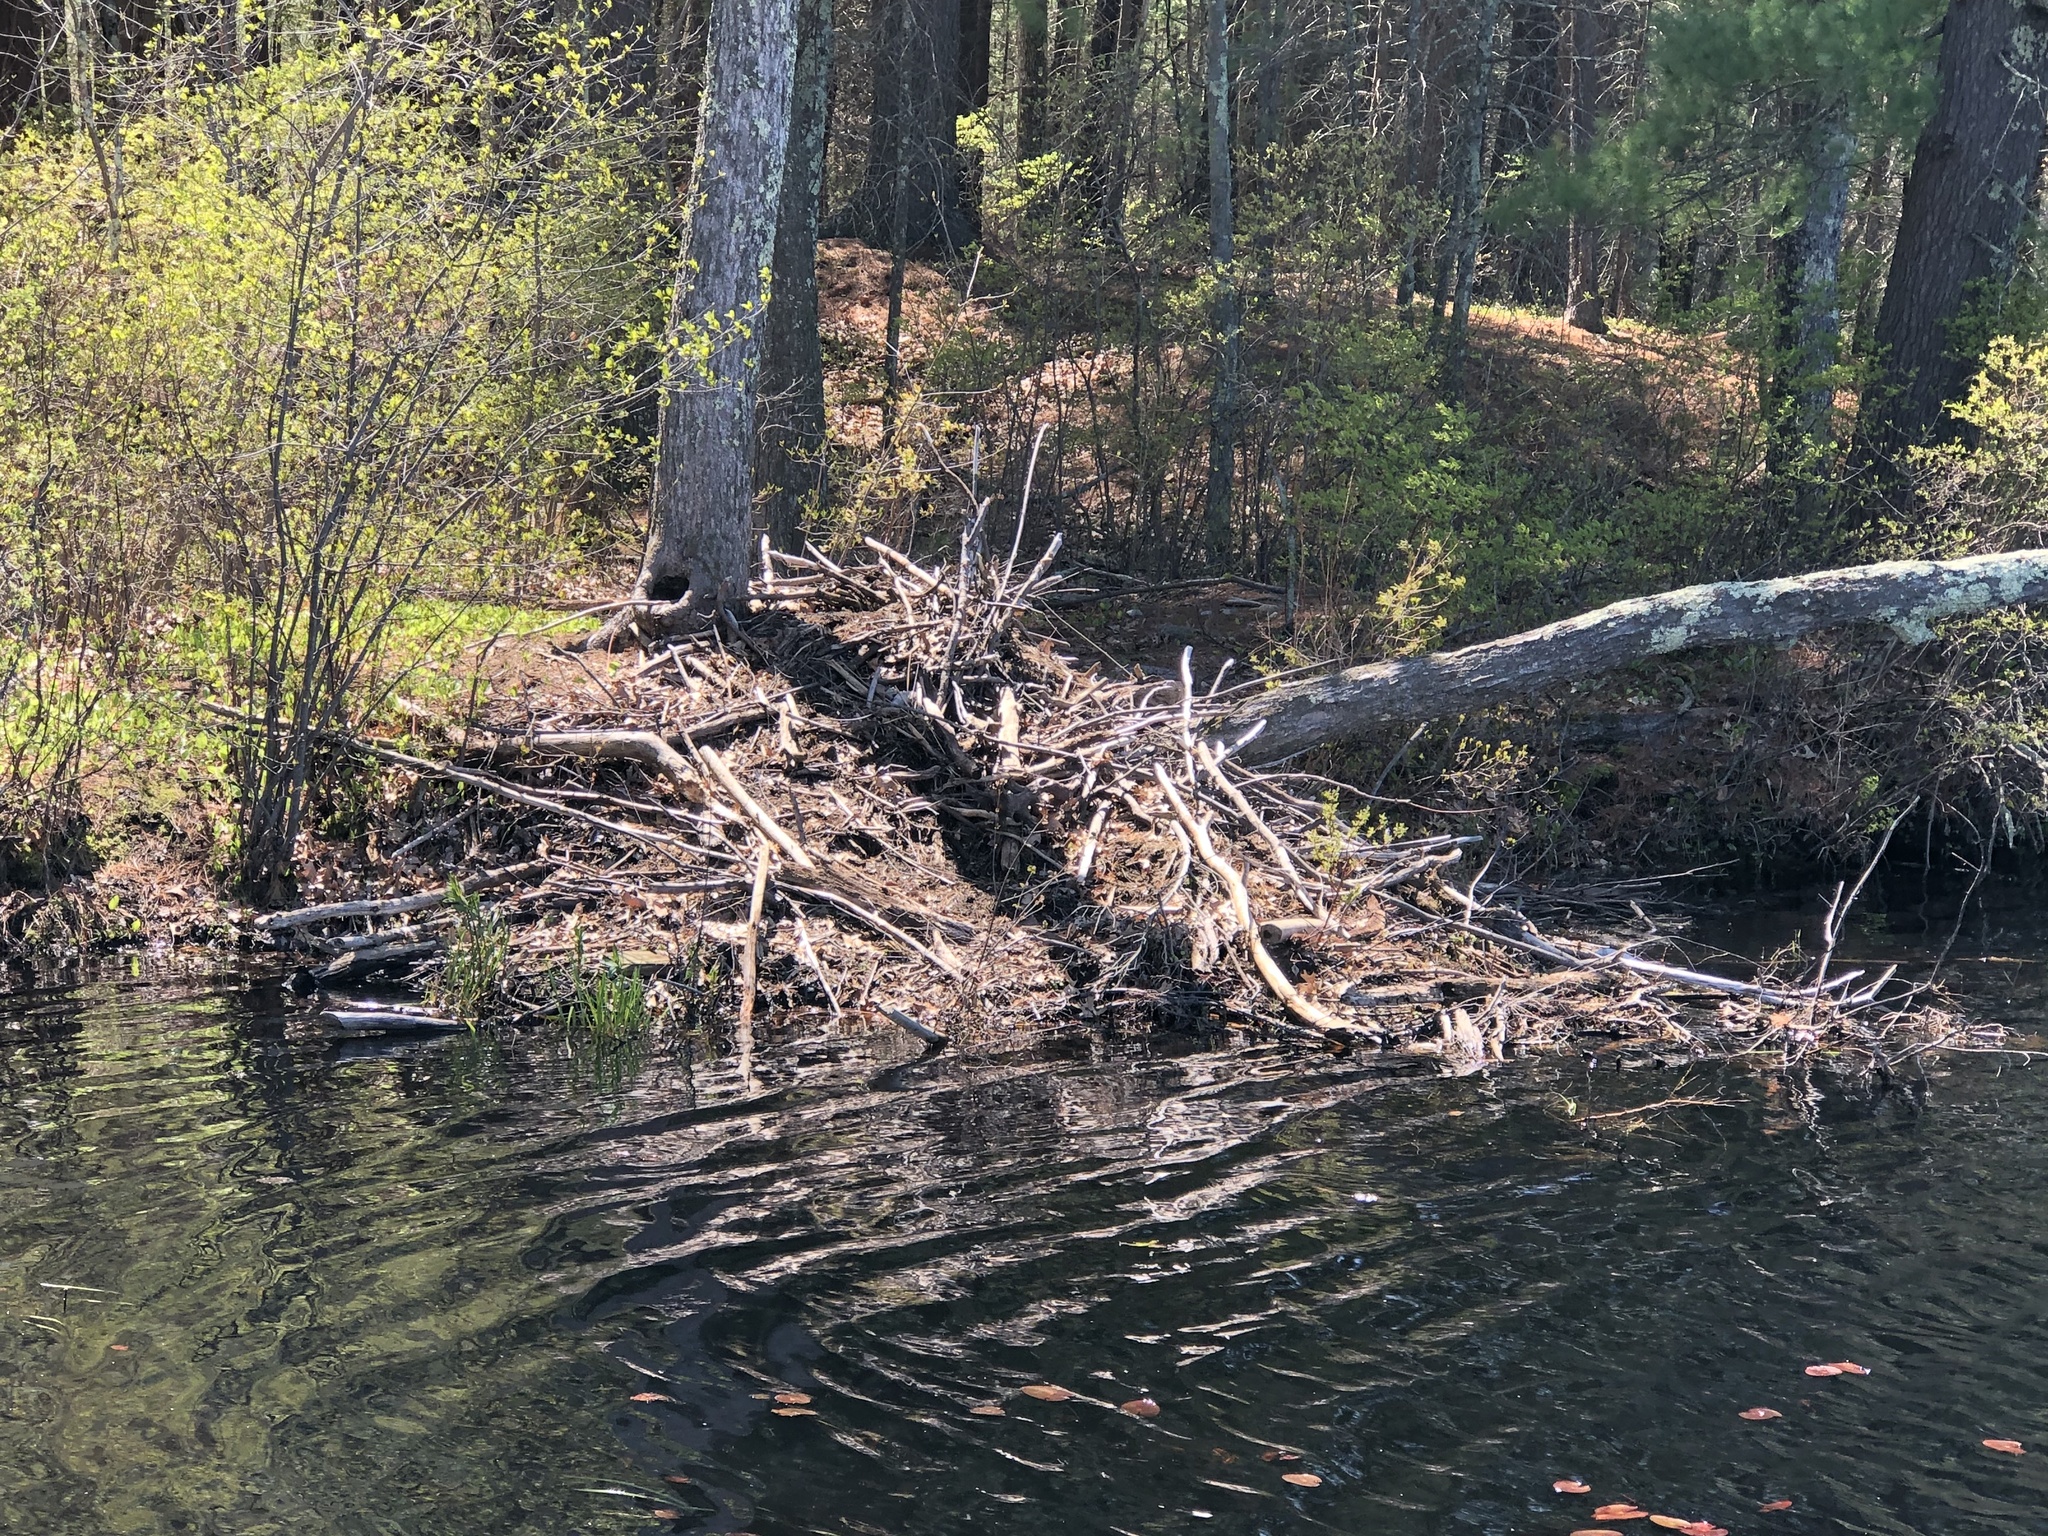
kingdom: Animalia
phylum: Chordata
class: Mammalia
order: Rodentia
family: Castoridae
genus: Castor
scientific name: Castor canadensis
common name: American beaver
